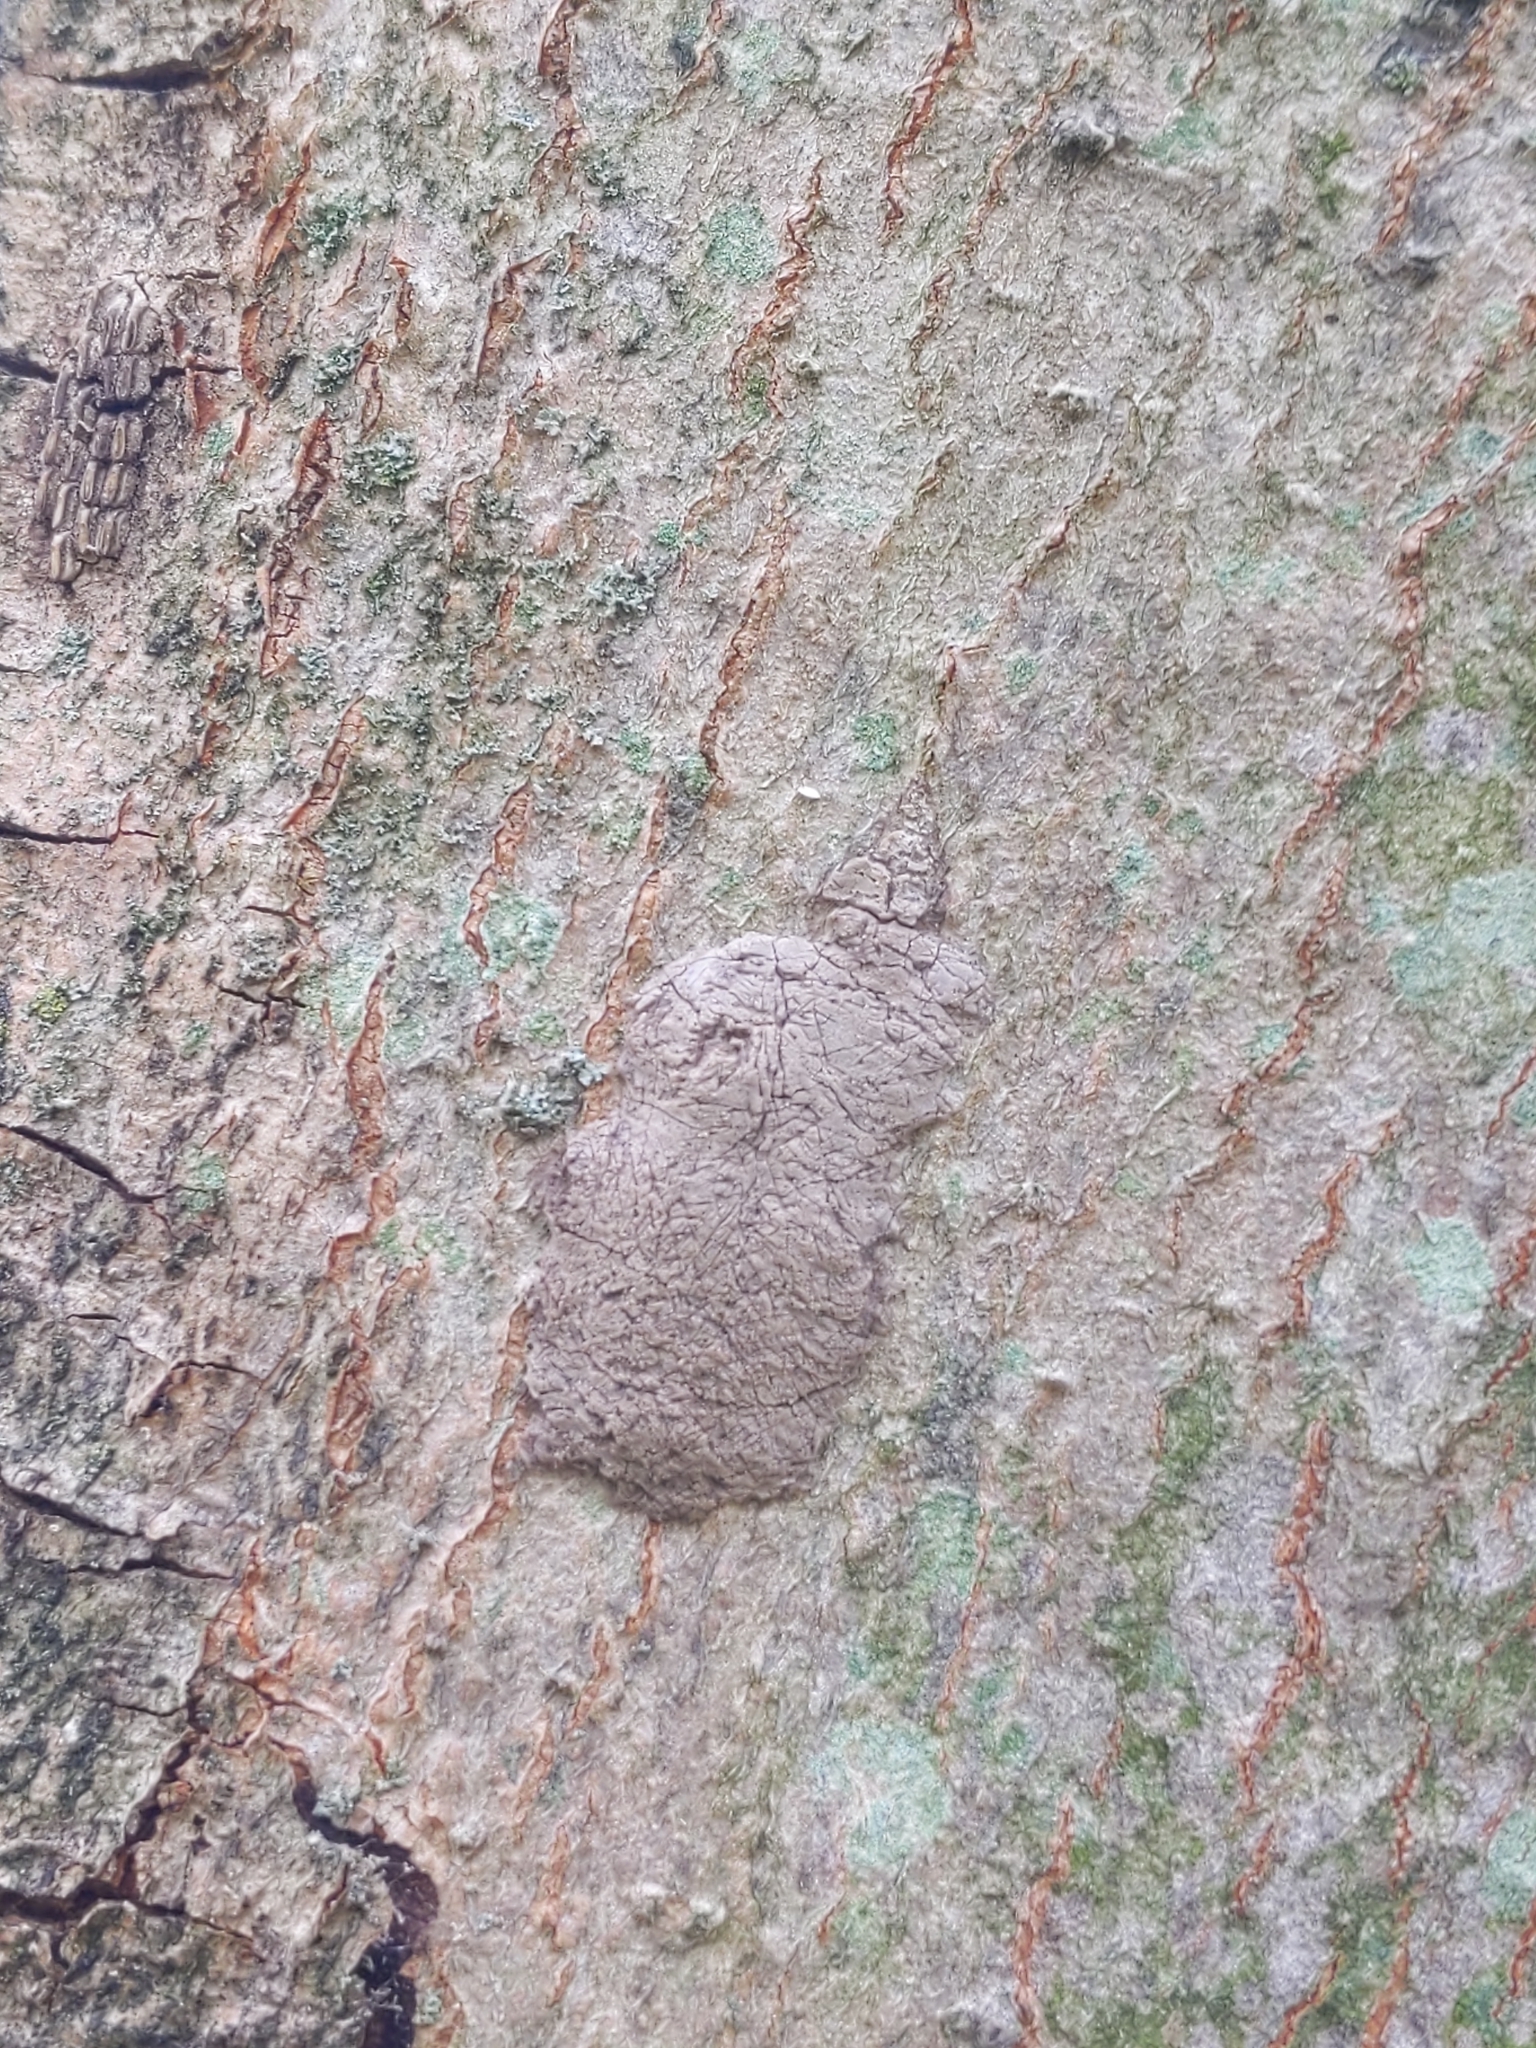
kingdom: Animalia
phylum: Arthropoda
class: Insecta
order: Hemiptera
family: Fulgoridae
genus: Lycorma
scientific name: Lycorma delicatula
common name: Spotted lanternfly
